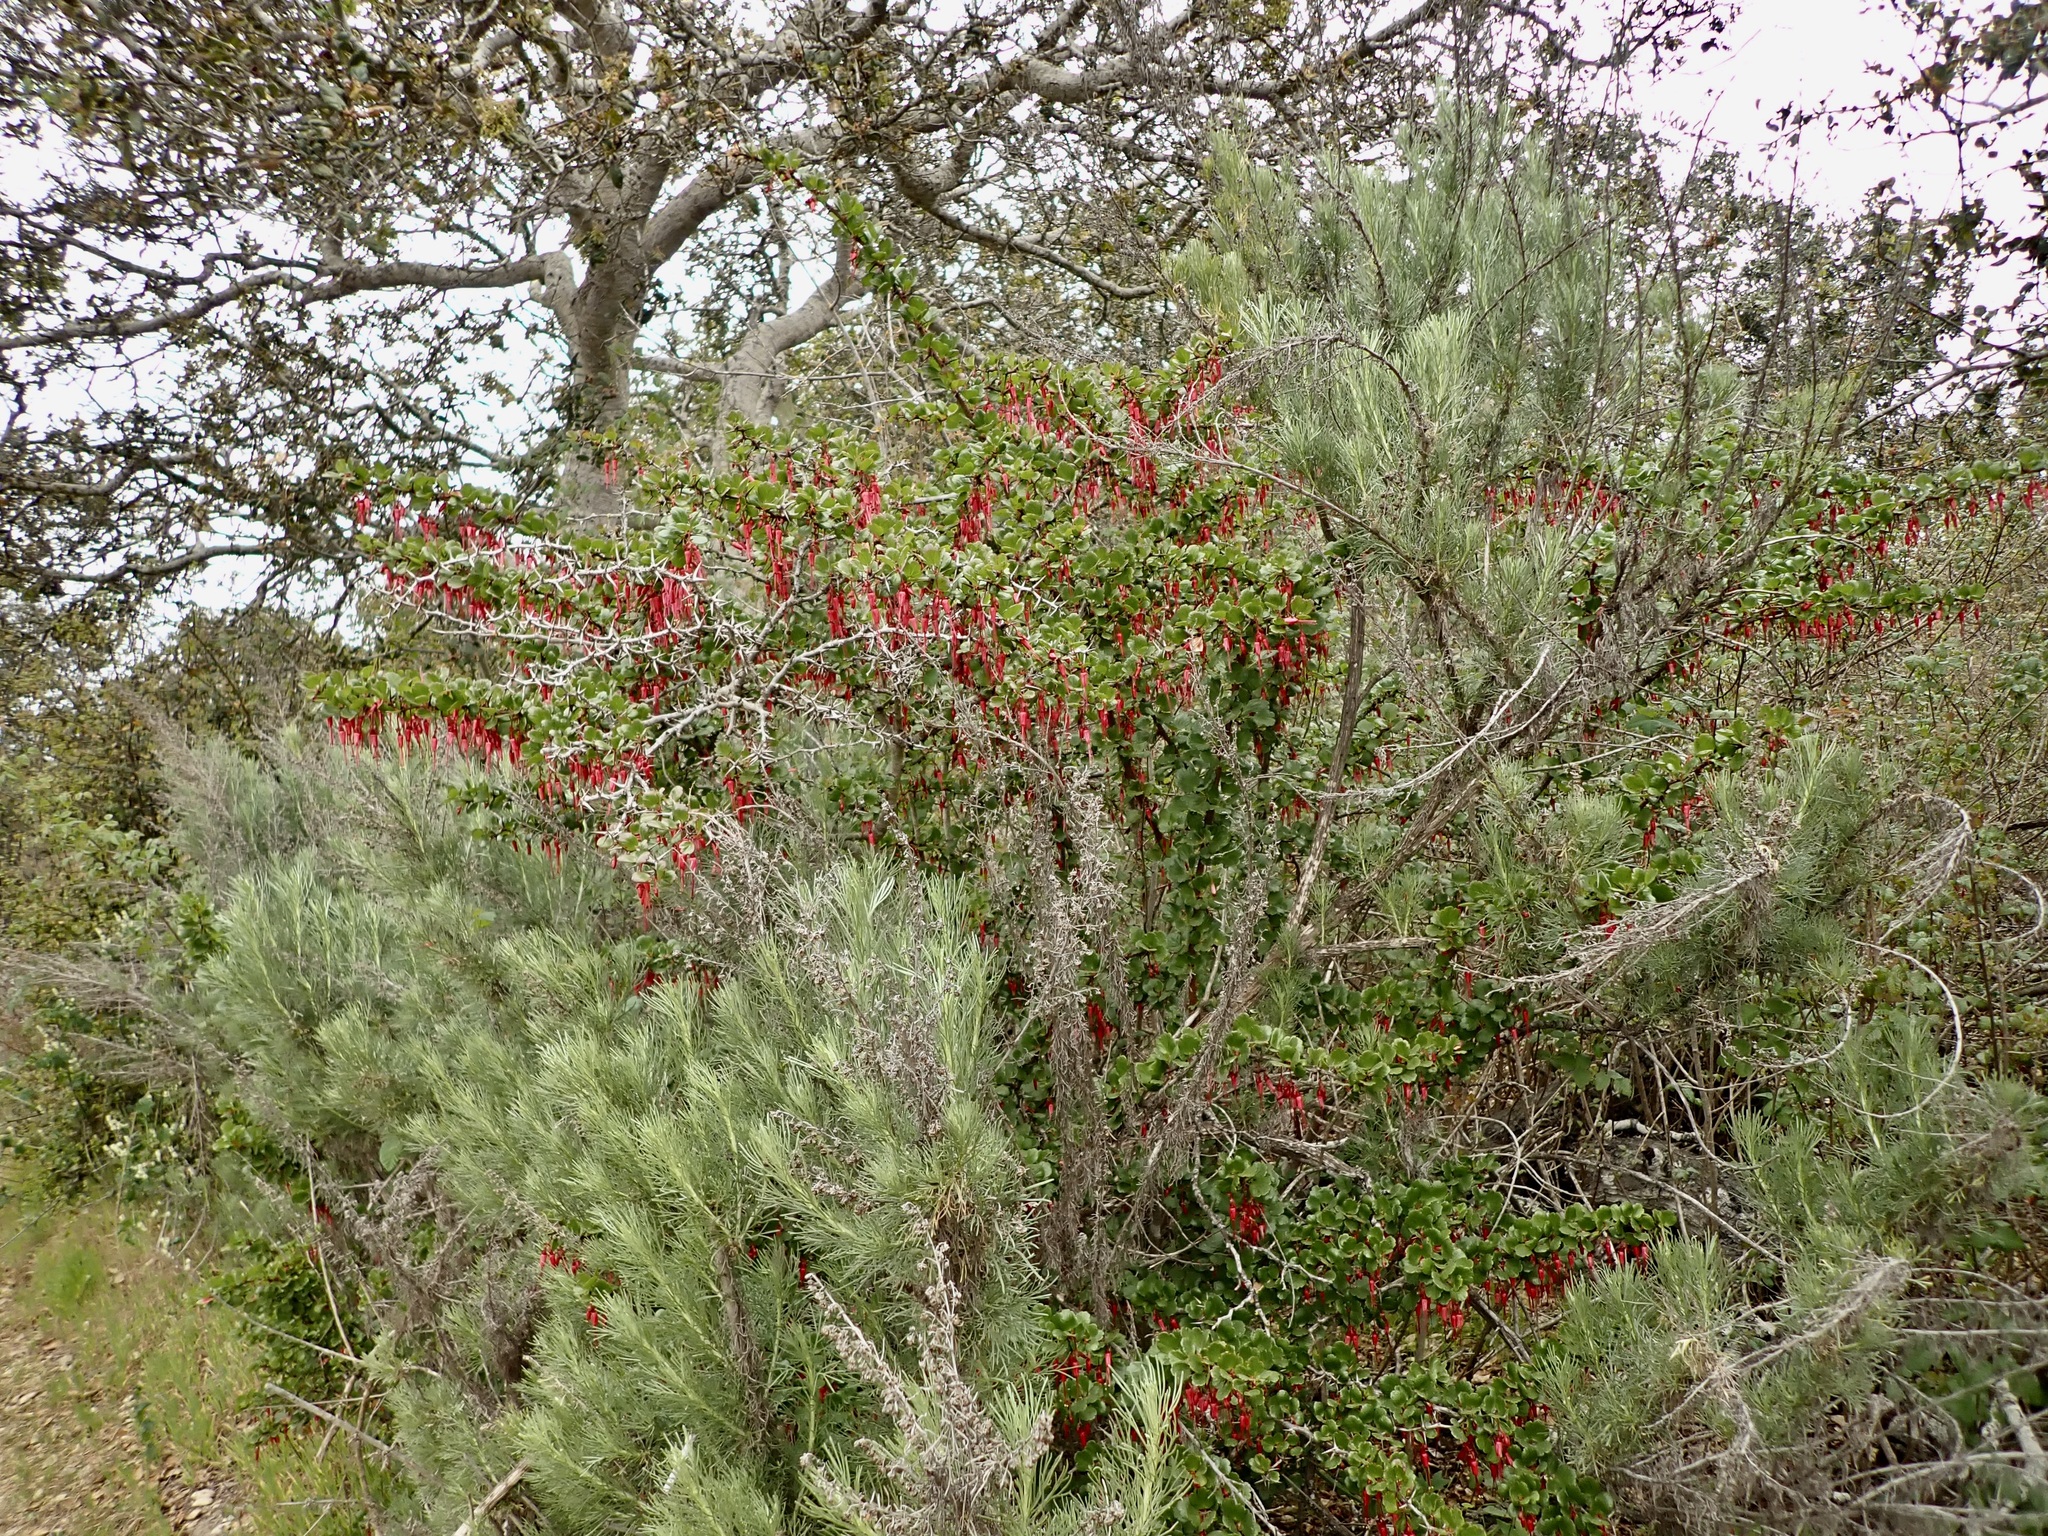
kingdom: Plantae
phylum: Tracheophyta
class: Magnoliopsida
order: Saxifragales
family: Grossulariaceae
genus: Ribes
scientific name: Ribes speciosum
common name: Fuchsia-flower gooseberry
